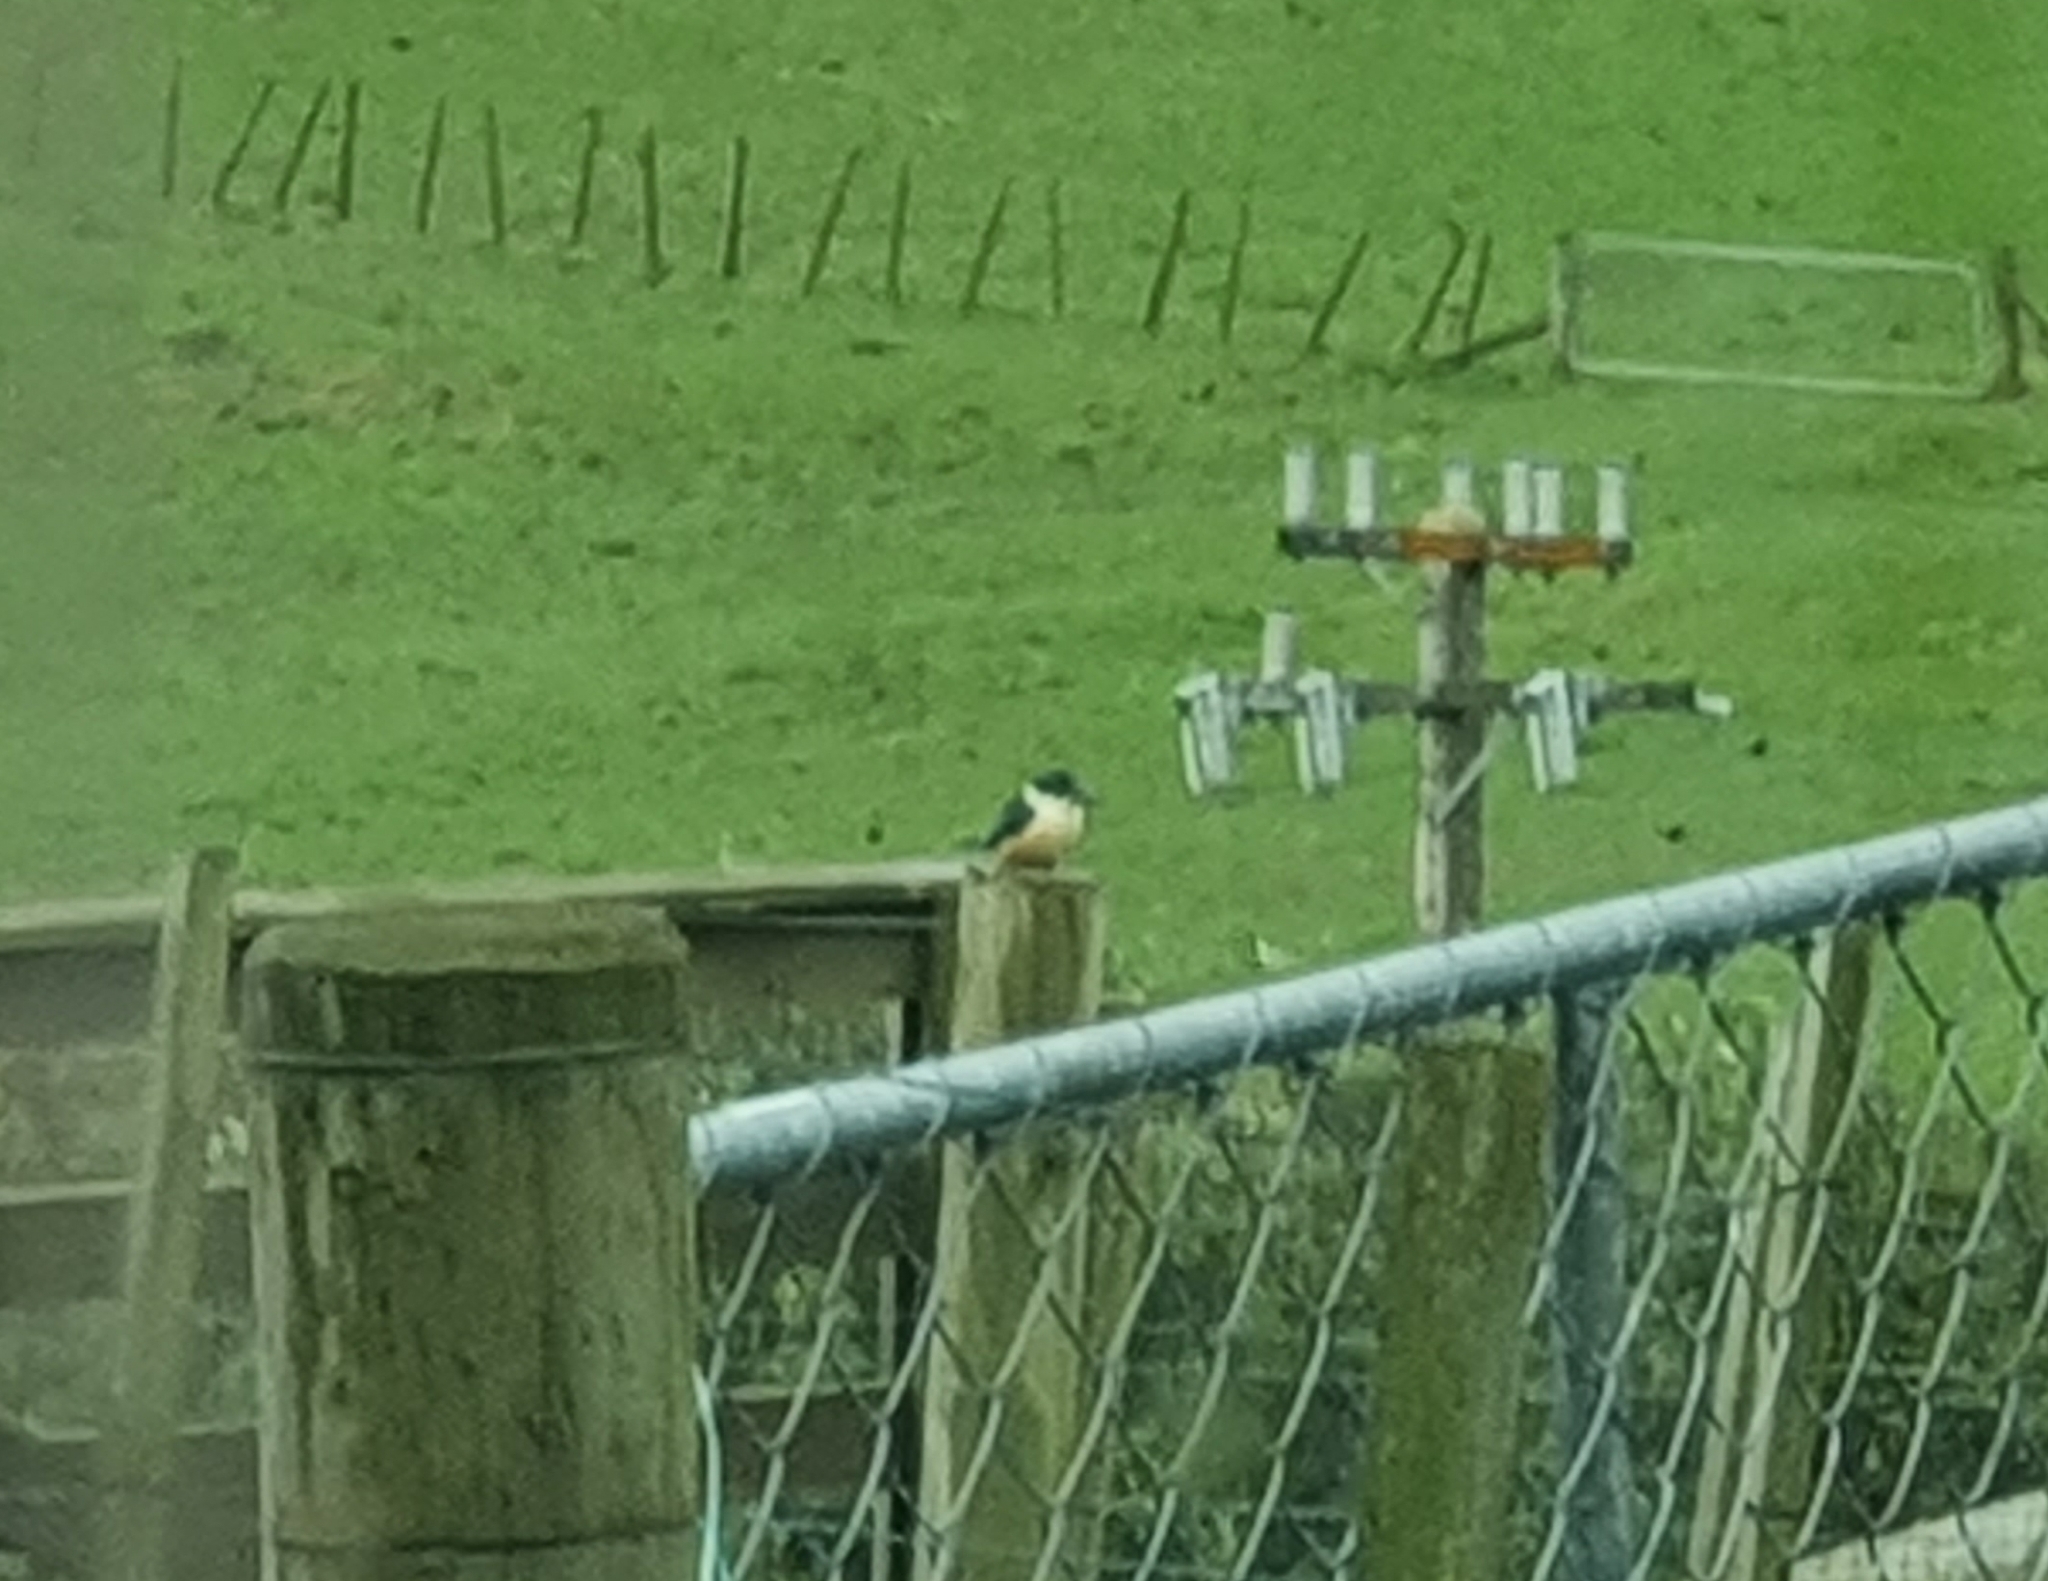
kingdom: Animalia
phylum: Chordata
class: Aves
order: Coraciiformes
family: Alcedinidae
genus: Todiramphus
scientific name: Todiramphus sanctus
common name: Sacred kingfisher
